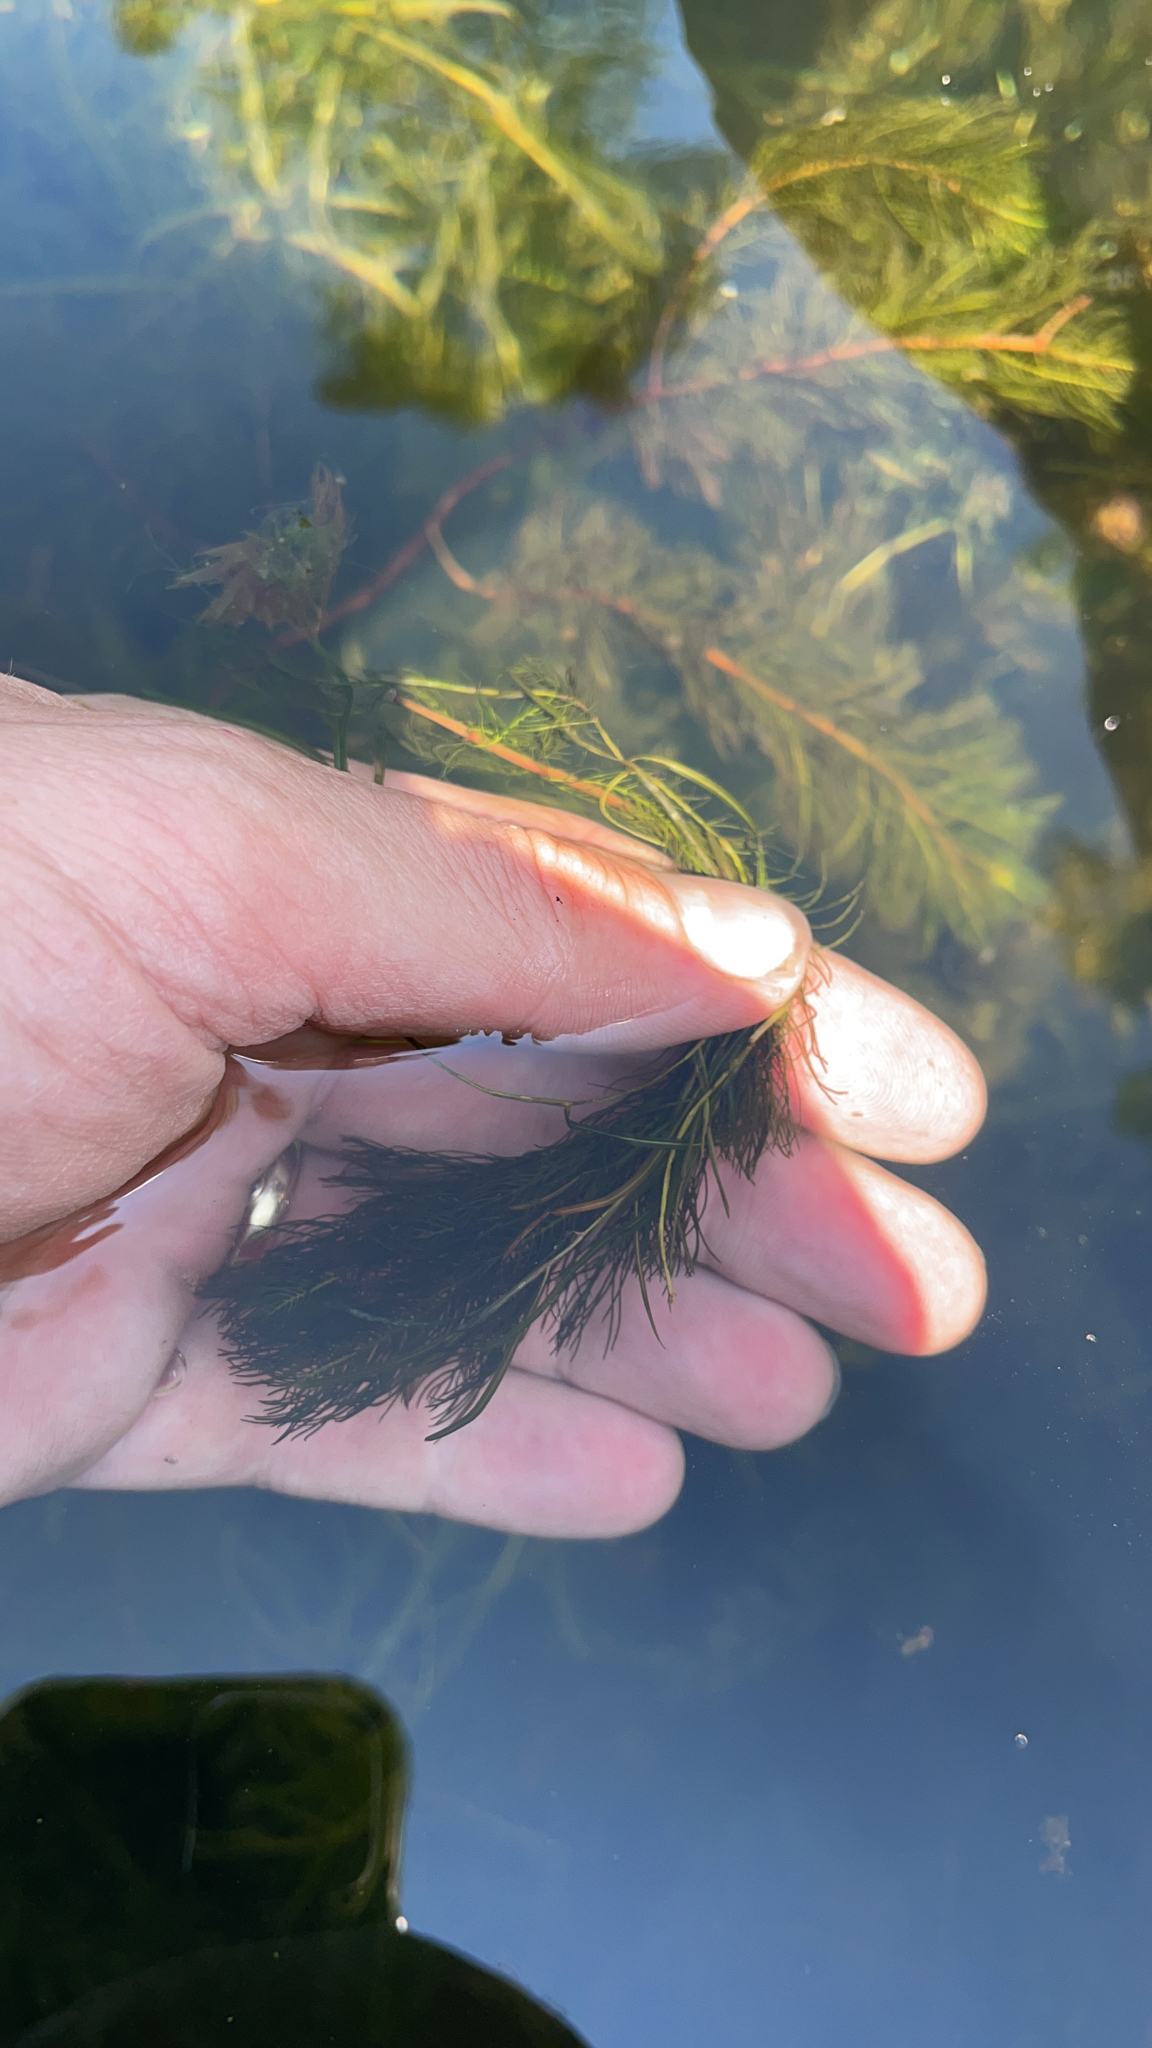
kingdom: Plantae
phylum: Tracheophyta
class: Magnoliopsida
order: Saxifragales
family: Haloragaceae
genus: Myriophyllum
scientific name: Myriophyllum spicatum
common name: Spiked water-milfoil
